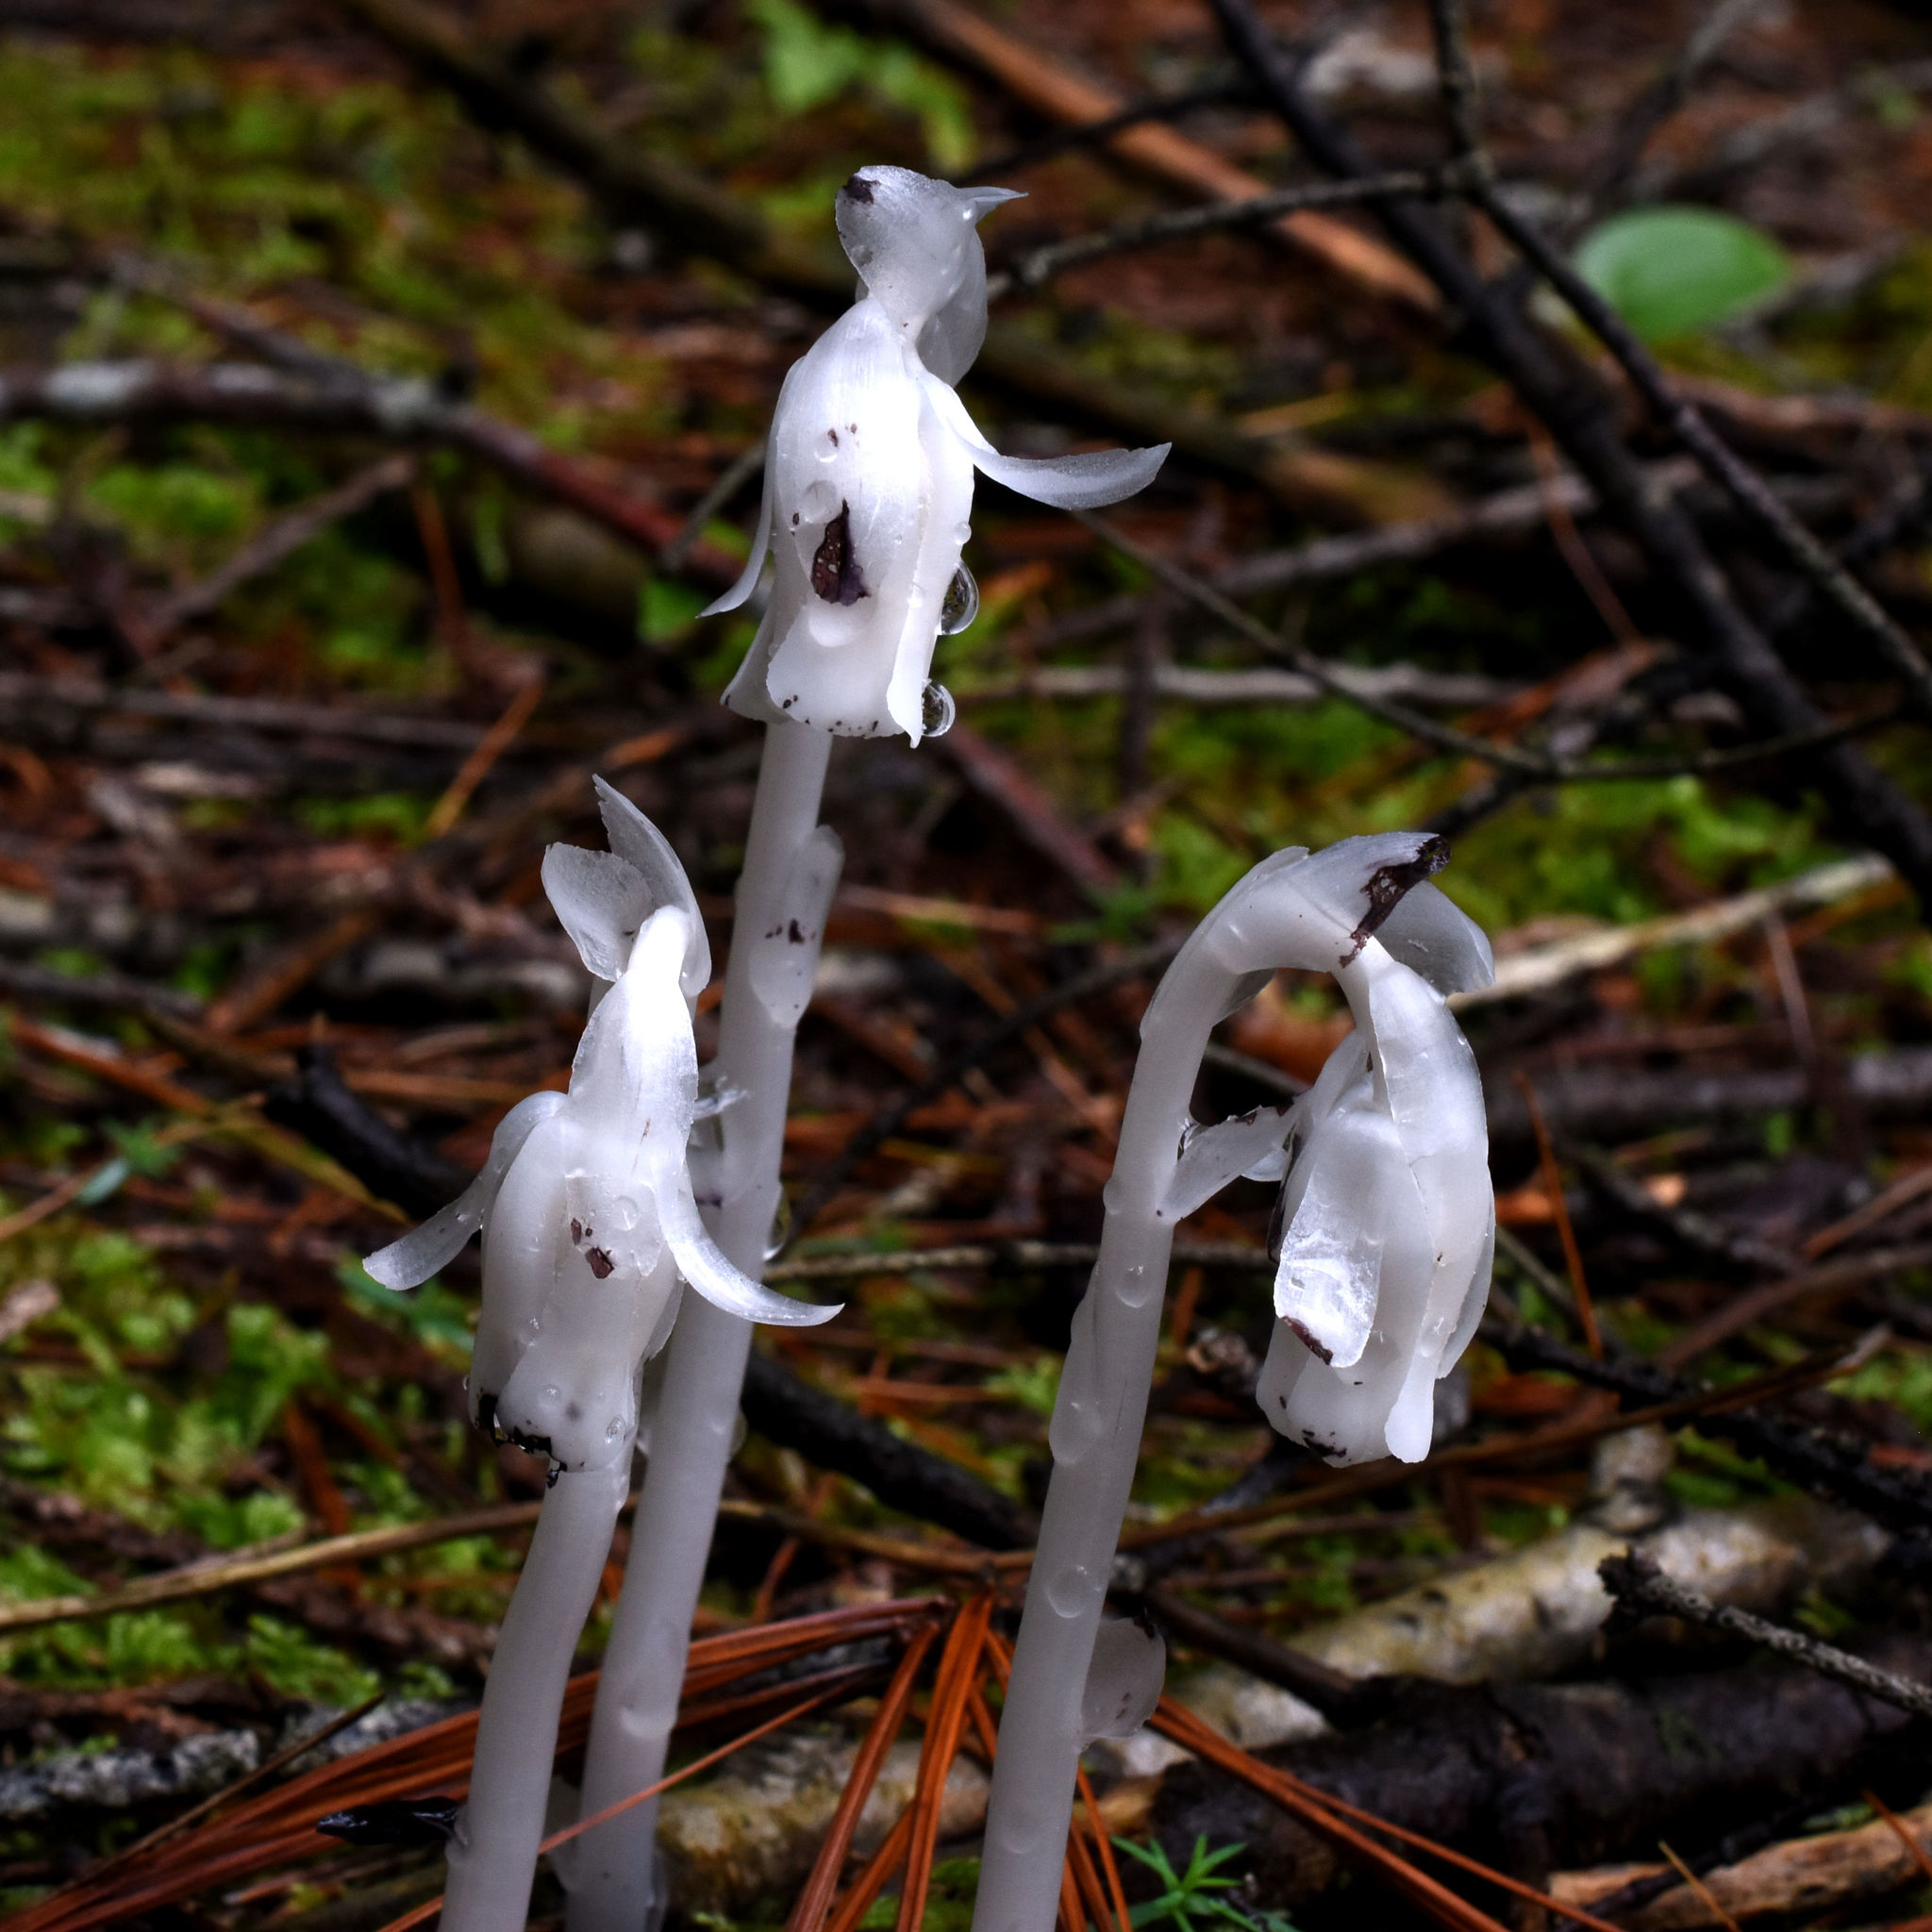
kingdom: Plantae
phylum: Tracheophyta
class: Magnoliopsida
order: Ericales
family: Ericaceae
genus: Monotropa
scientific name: Monotropa uniflora
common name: Convulsion root
